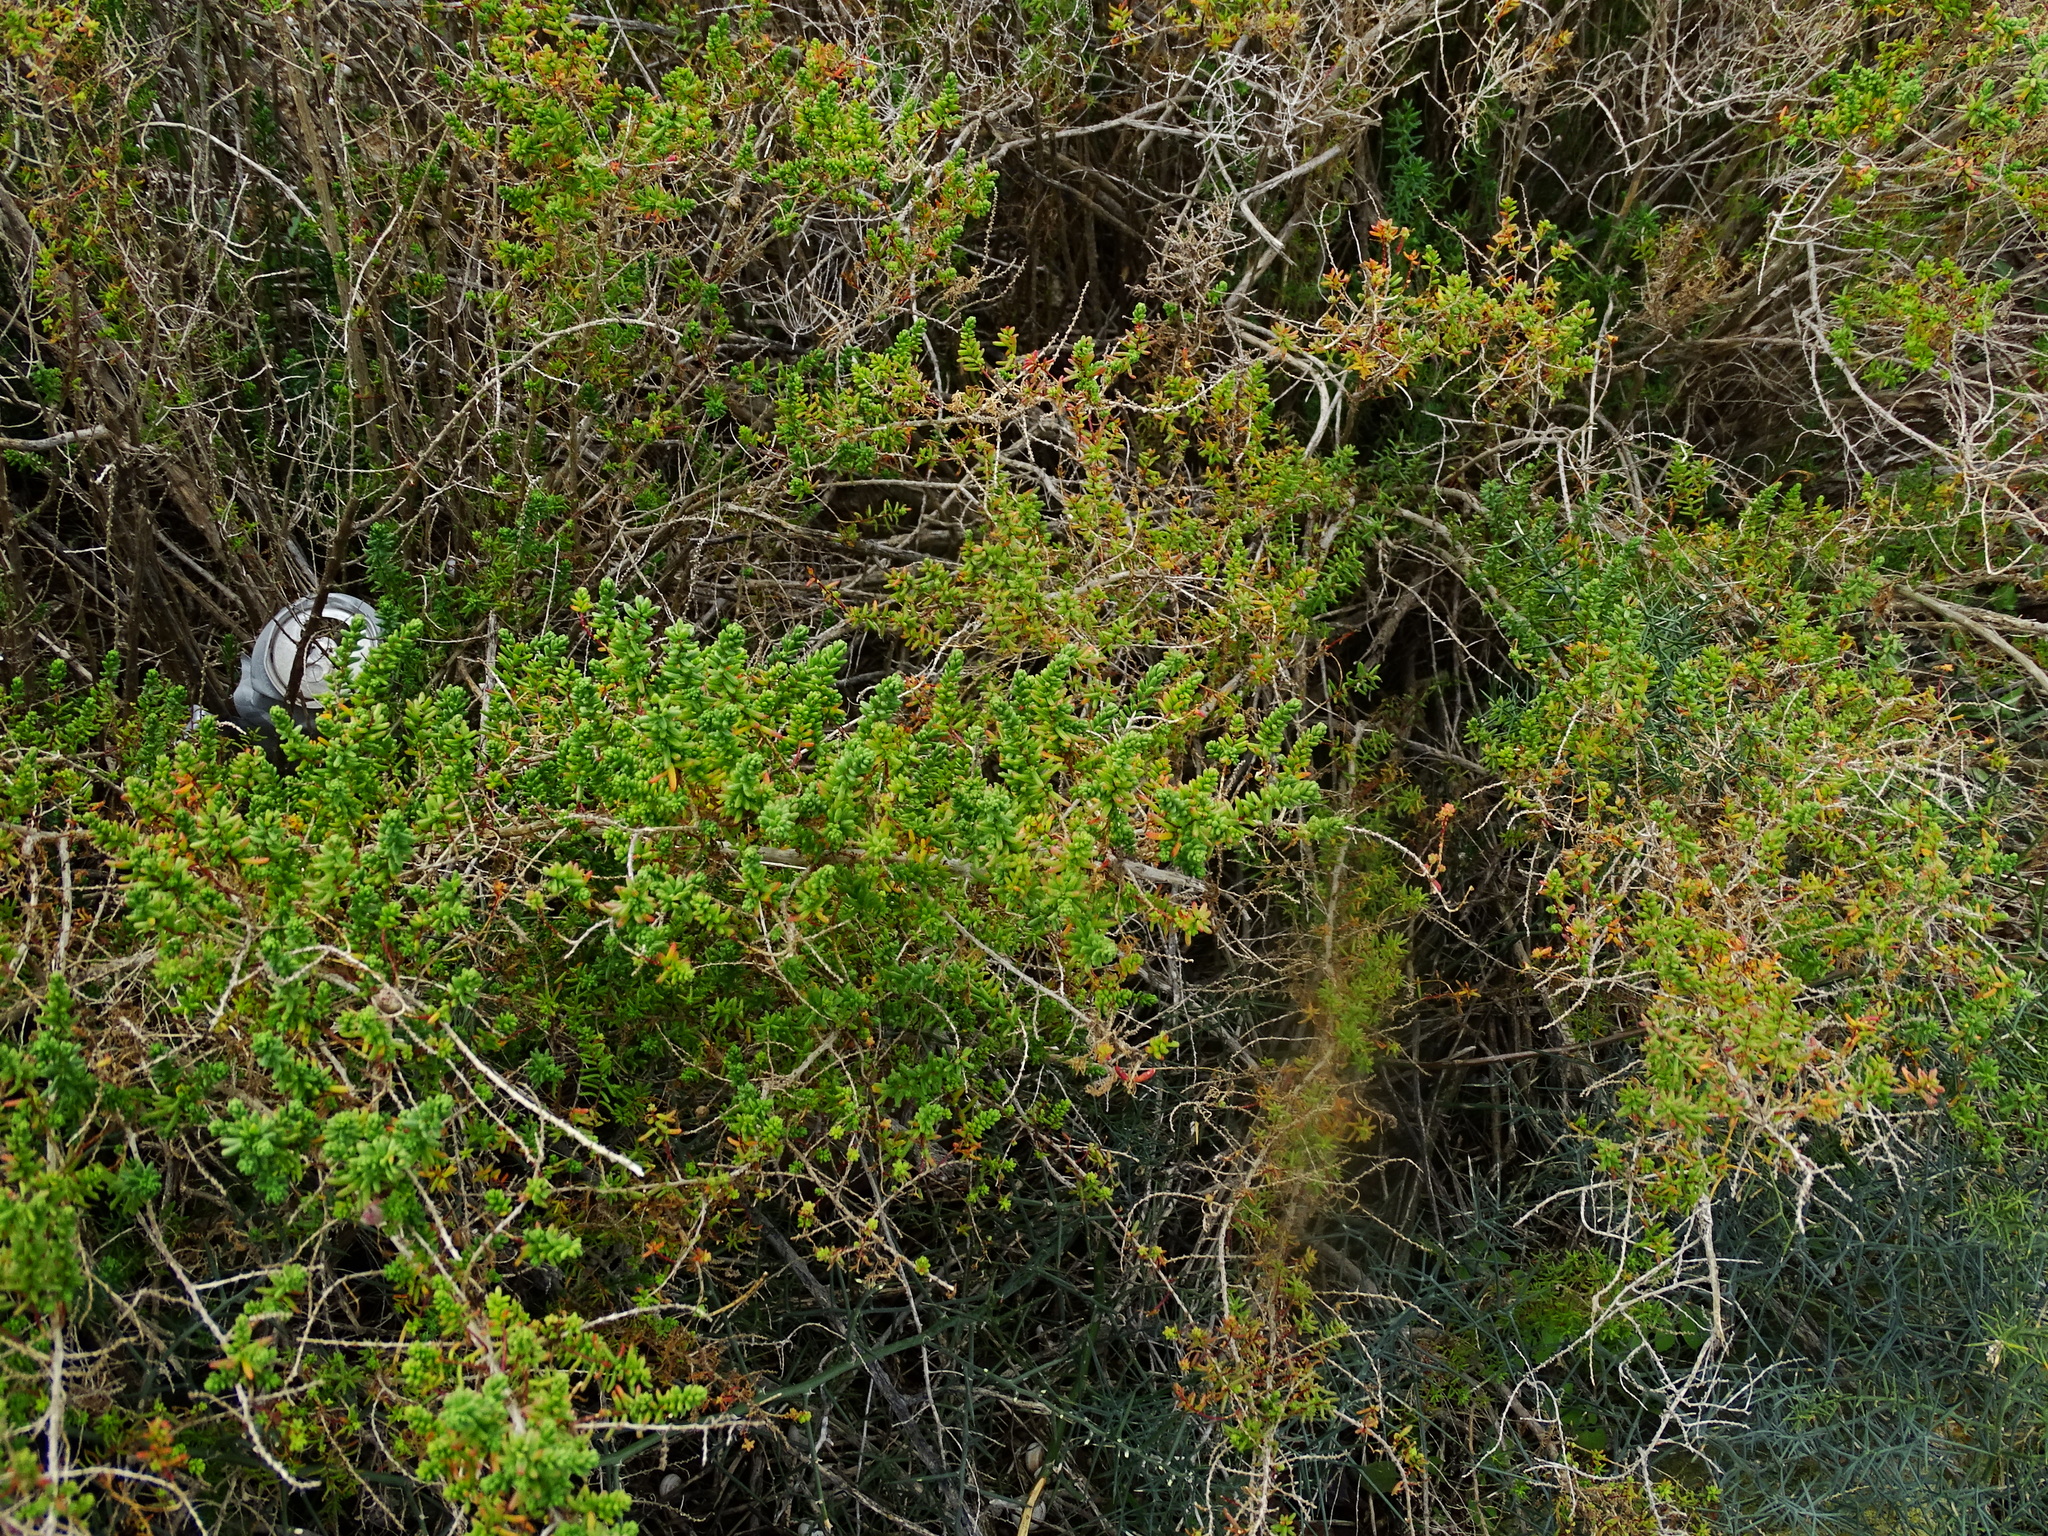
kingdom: Plantae
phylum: Tracheophyta
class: Magnoliopsida
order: Caryophyllales
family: Amaranthaceae
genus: Suaeda
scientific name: Suaeda vera
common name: Shrubby sea-blite
